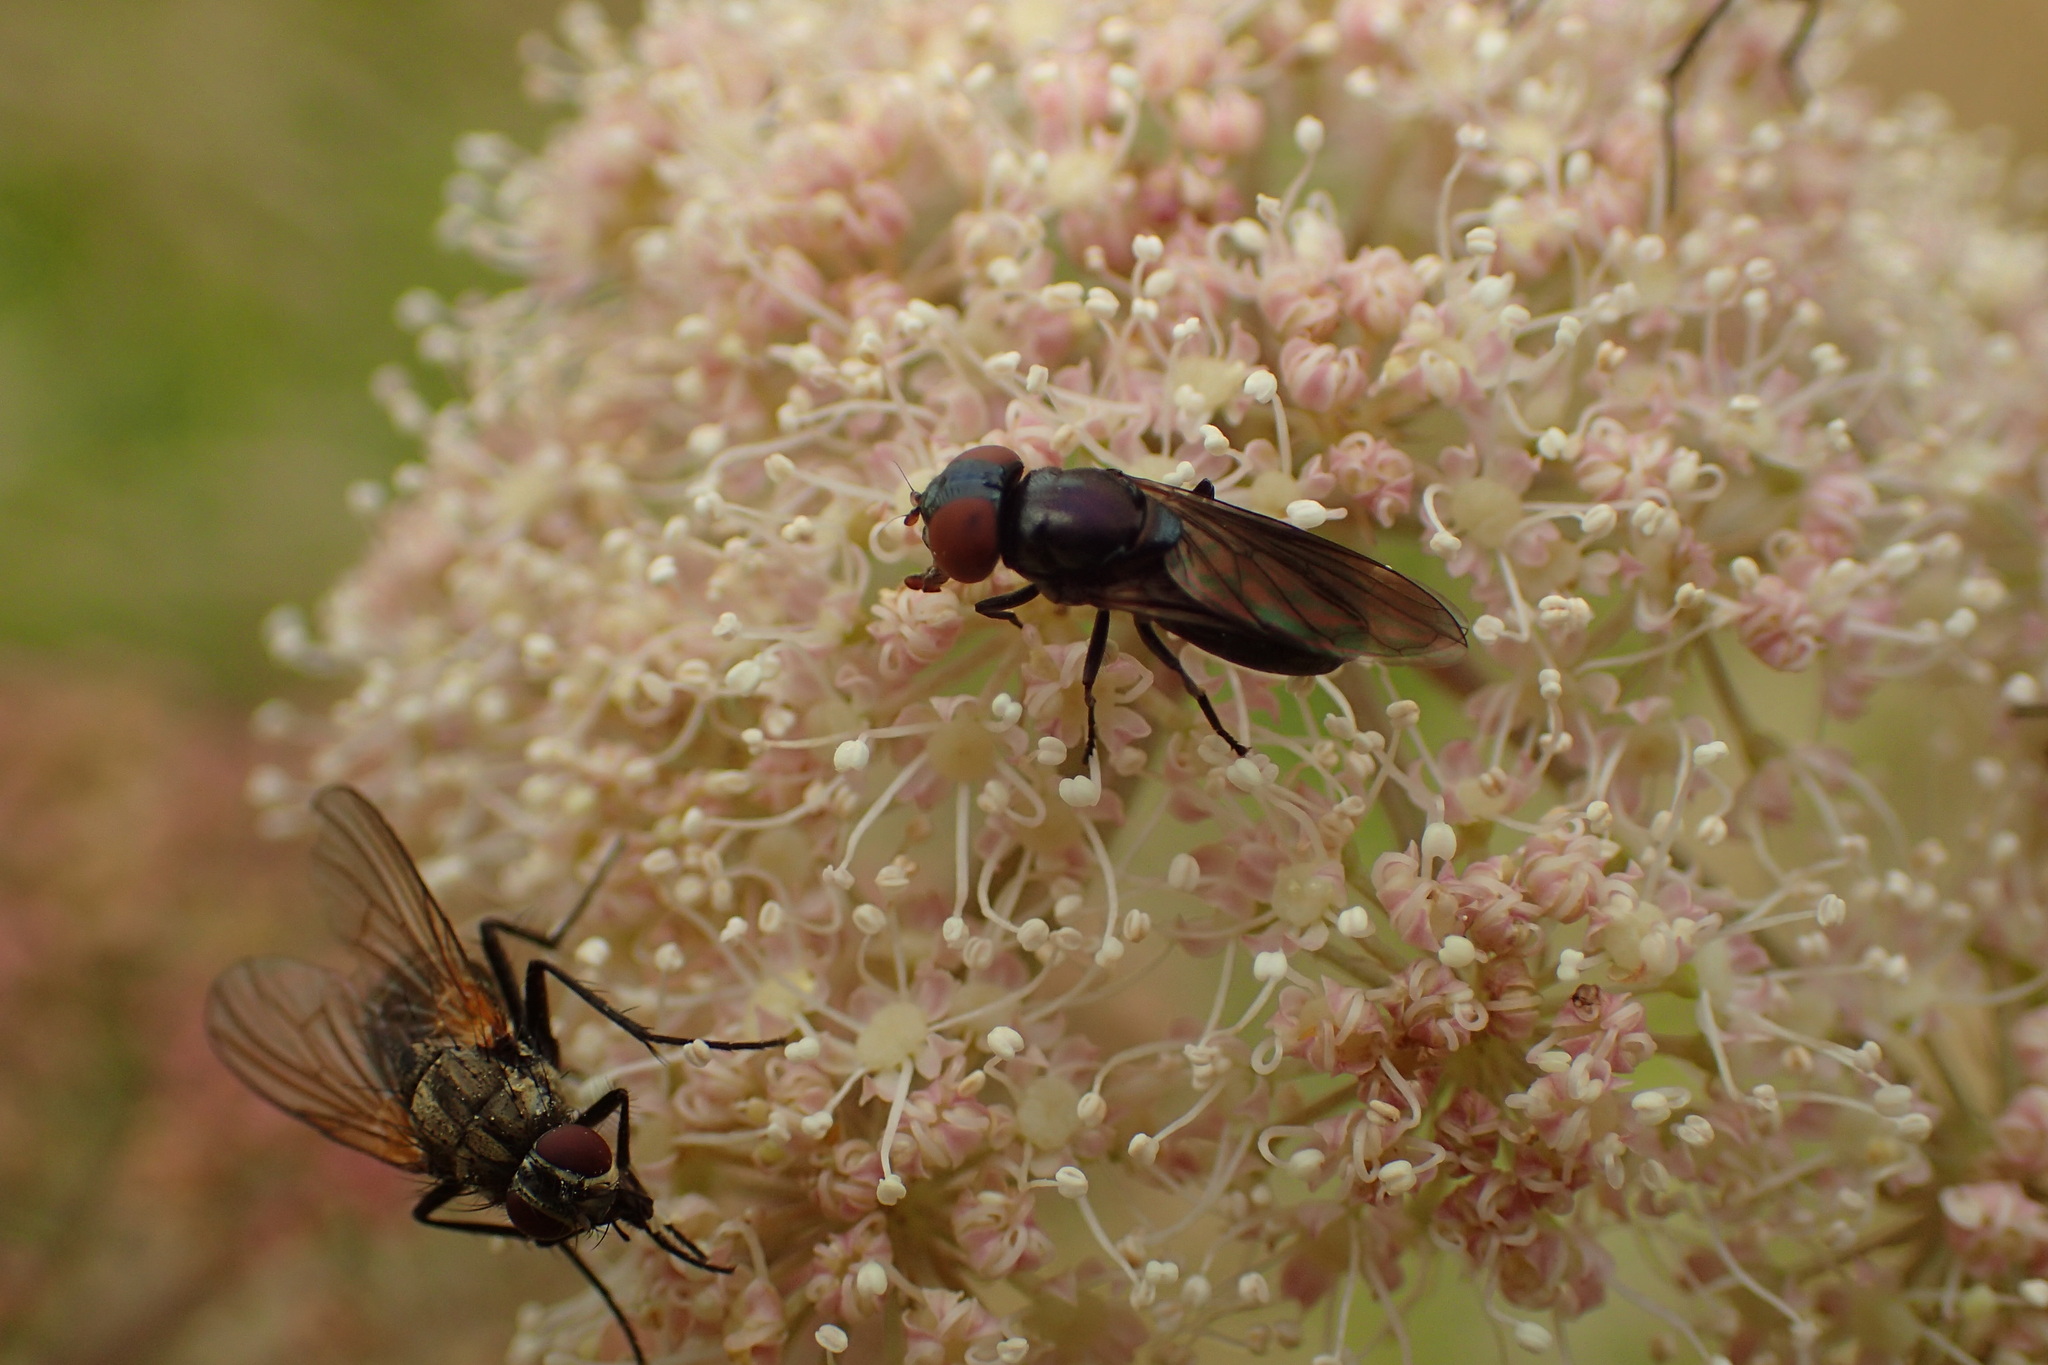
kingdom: Animalia
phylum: Arthropoda
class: Insecta
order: Diptera
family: Syrphidae
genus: Chrysogaster
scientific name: Chrysogaster solstitialis
